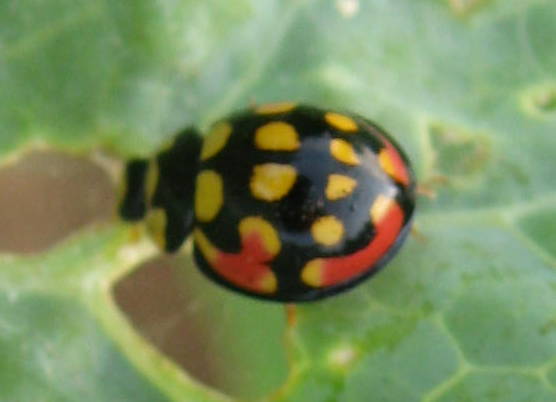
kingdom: Animalia
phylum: Arthropoda
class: Insecta
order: Coleoptera
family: Coccinellidae
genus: Cheilomenes
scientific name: Cheilomenes sulphurea
